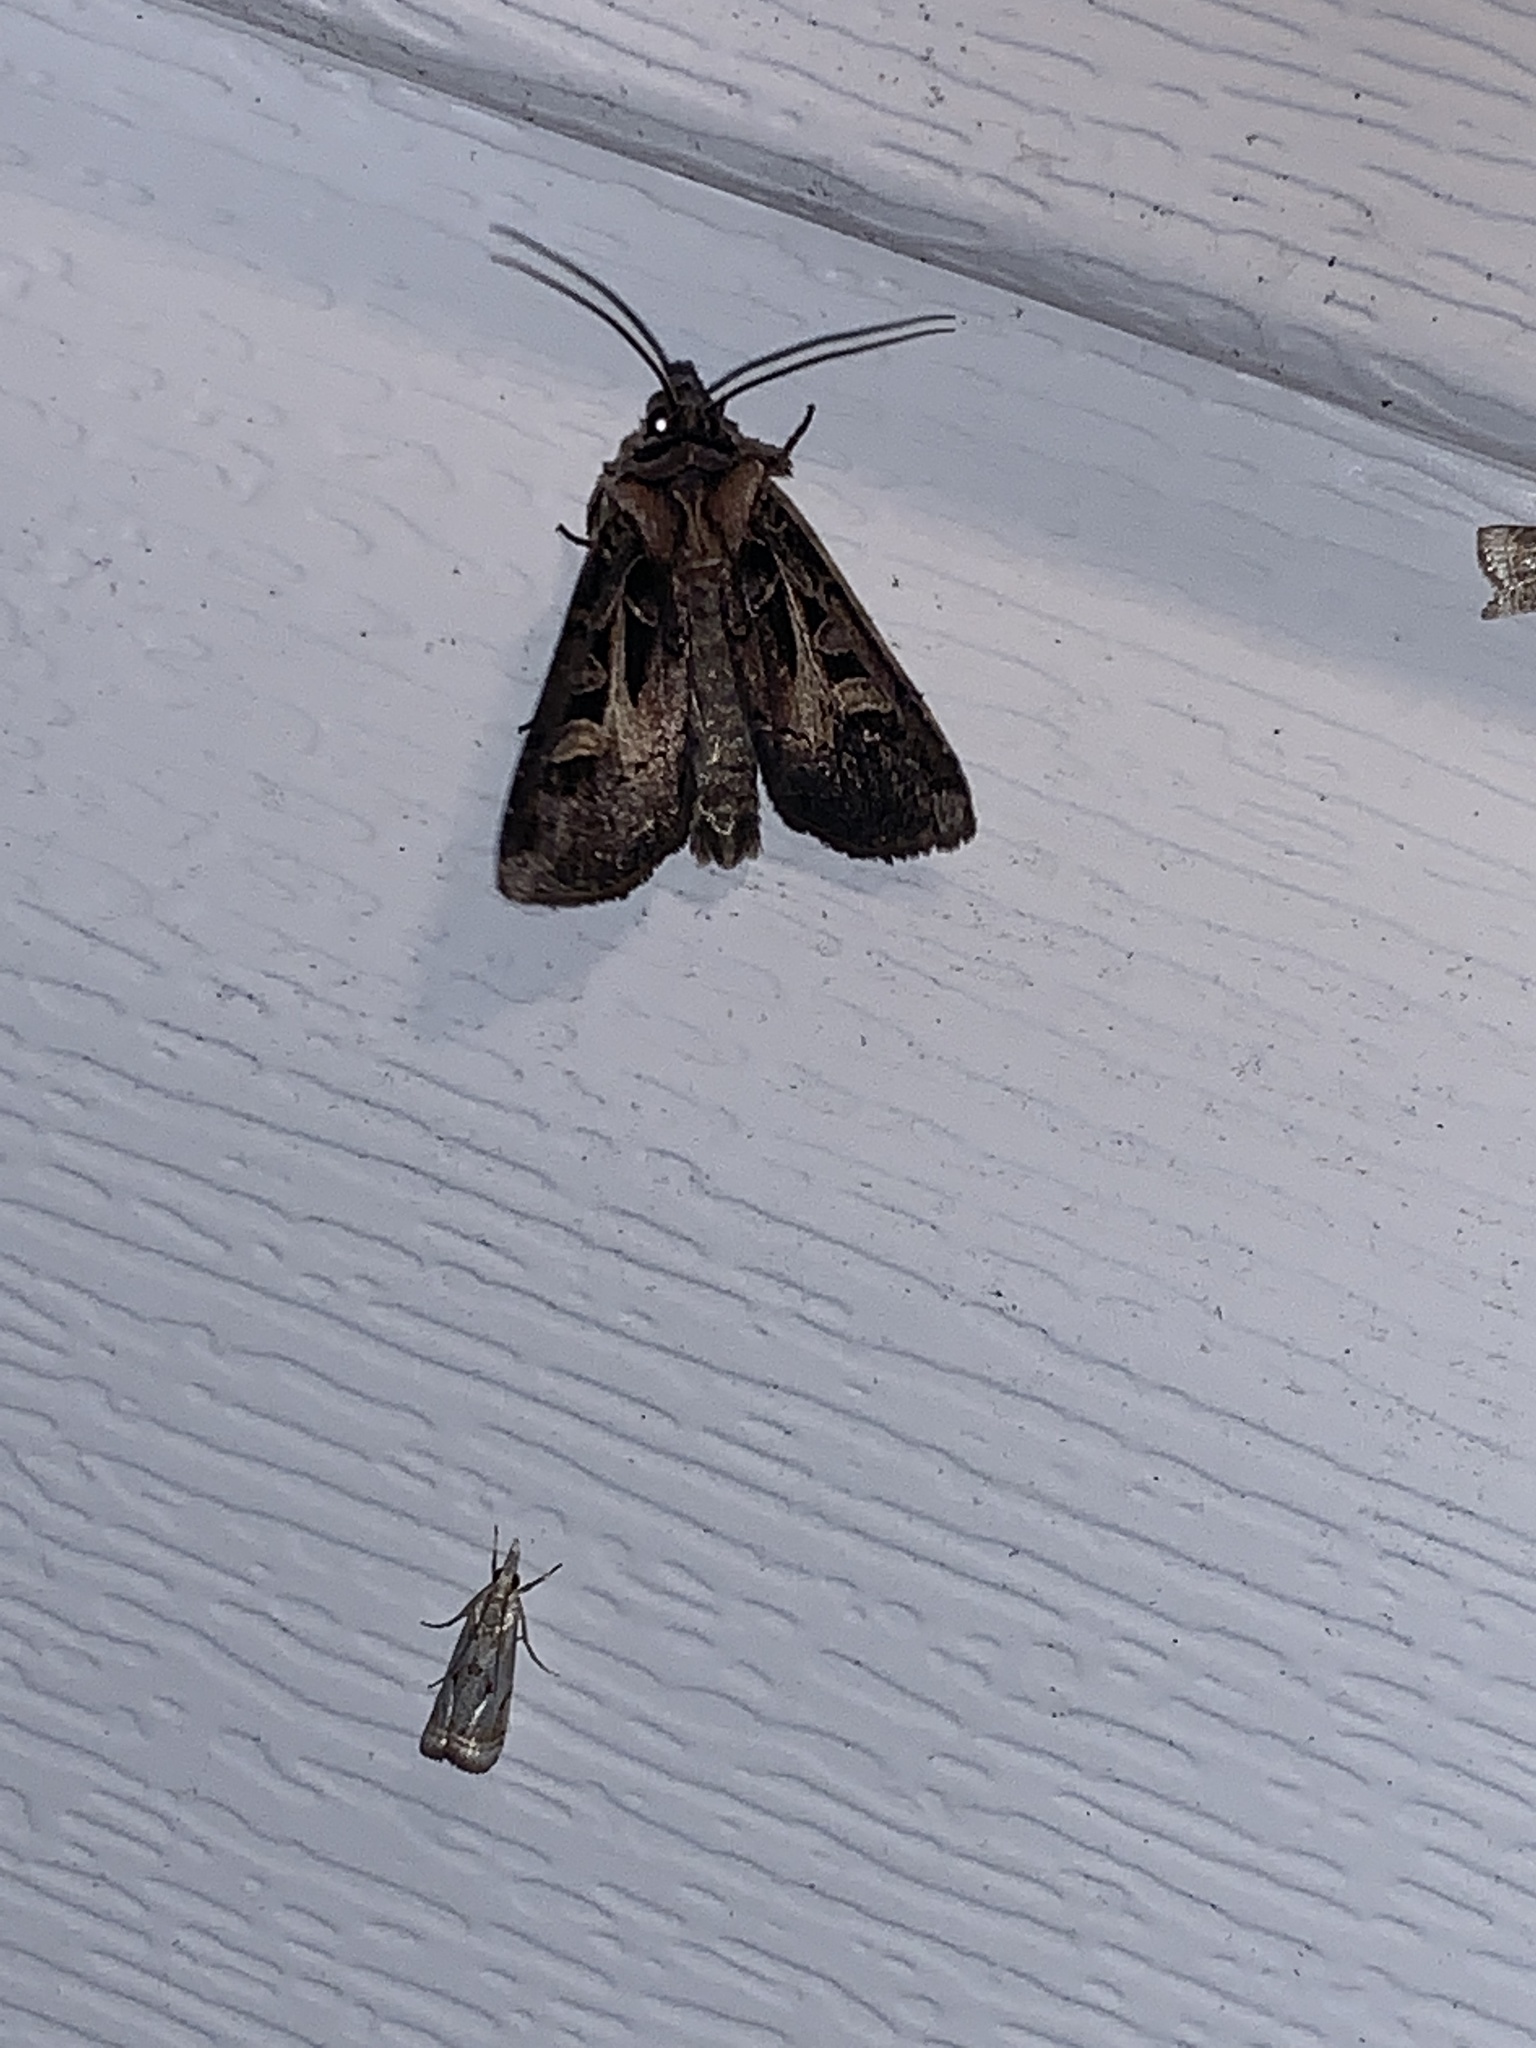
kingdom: Animalia
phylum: Arthropoda
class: Insecta
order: Lepidoptera
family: Noctuidae
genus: Feltia
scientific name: Feltia herilis
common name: Master's dart
